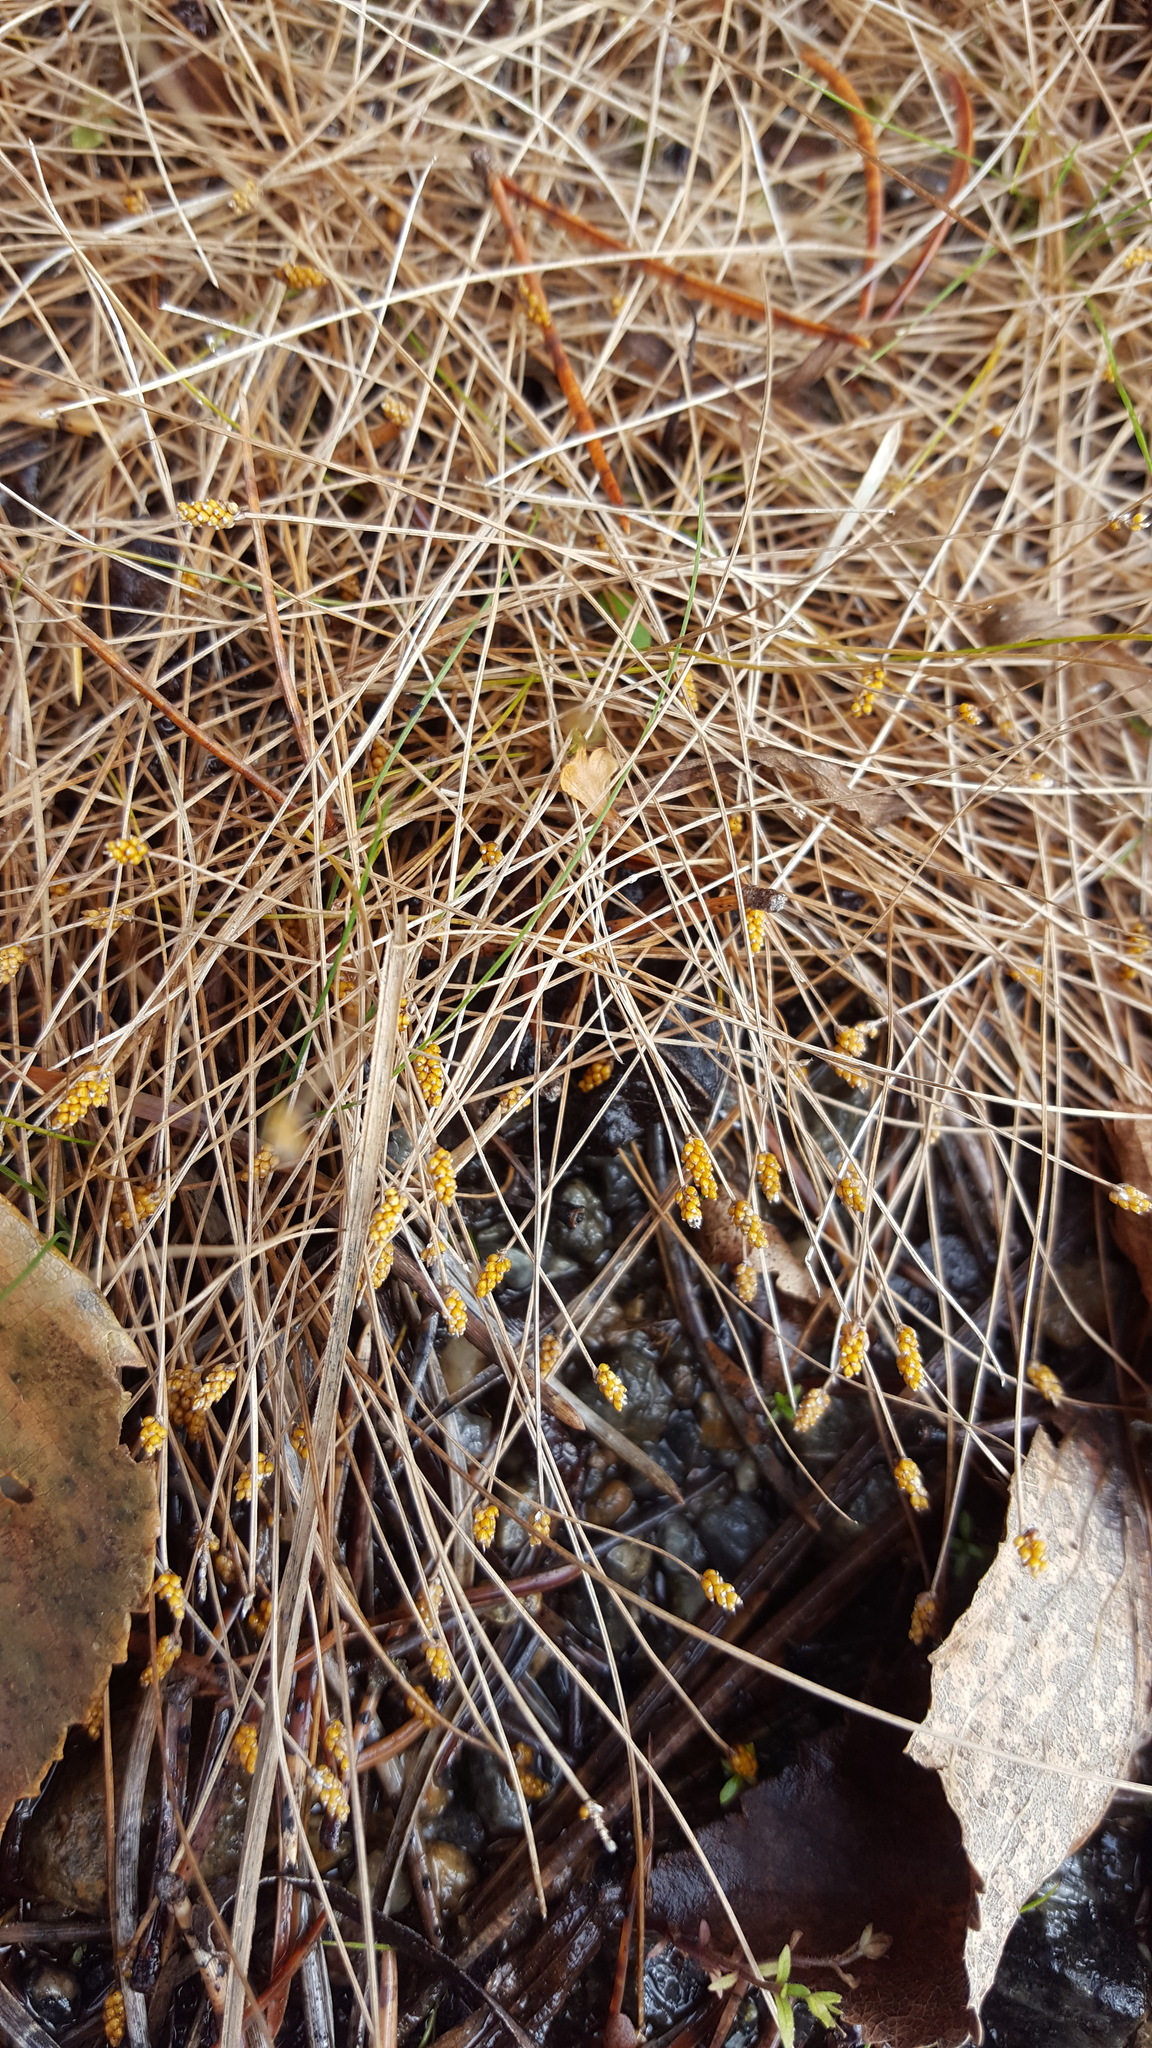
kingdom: Plantae
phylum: Tracheophyta
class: Liliopsida
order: Poales
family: Cyperaceae
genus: Eleocharis
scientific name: Eleocharis nitida
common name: Neat spikerush
